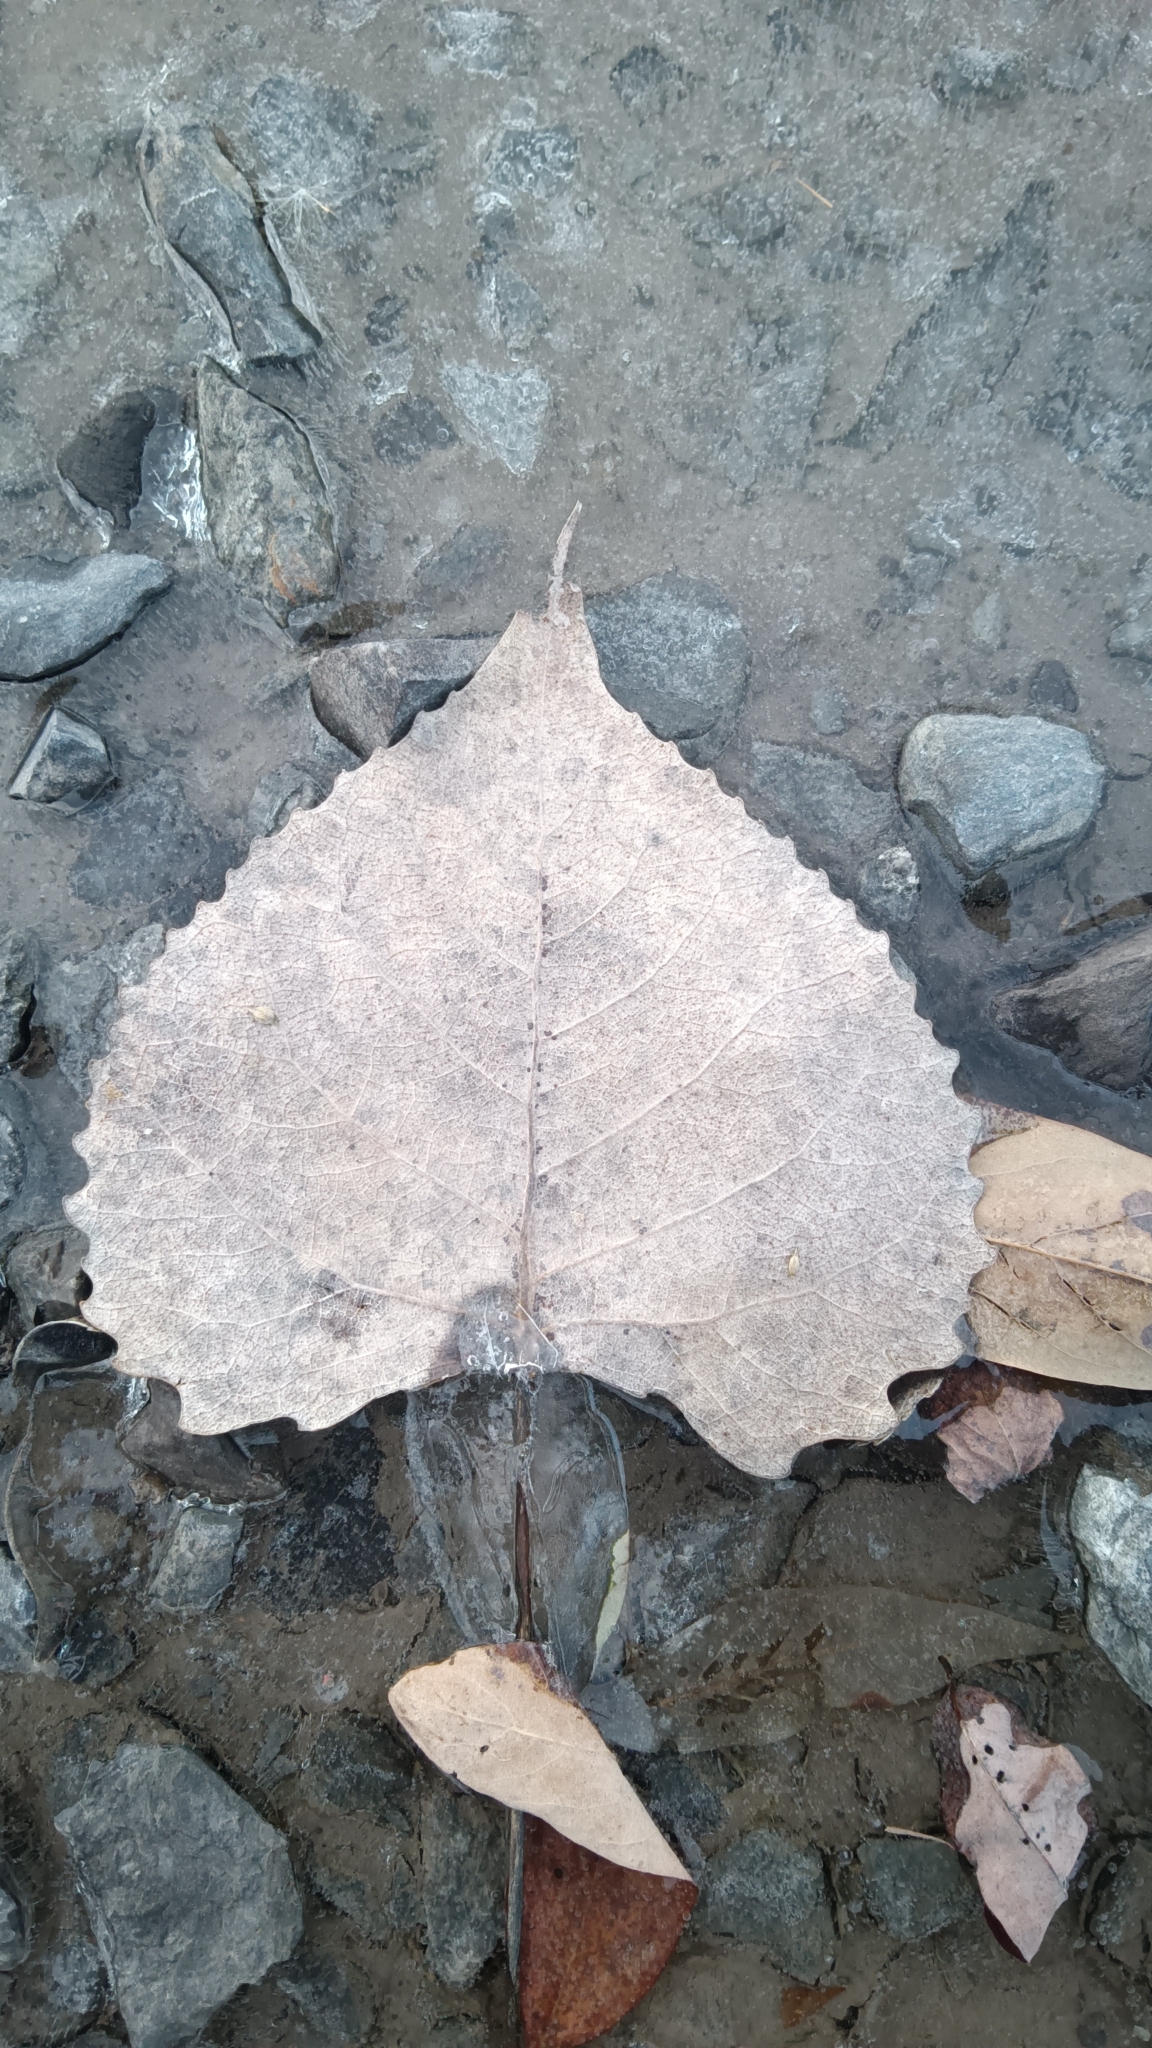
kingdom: Plantae
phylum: Tracheophyta
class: Magnoliopsida
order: Malpighiales
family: Salicaceae
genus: Populus
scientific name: Populus deltoides
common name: Eastern cottonwood
